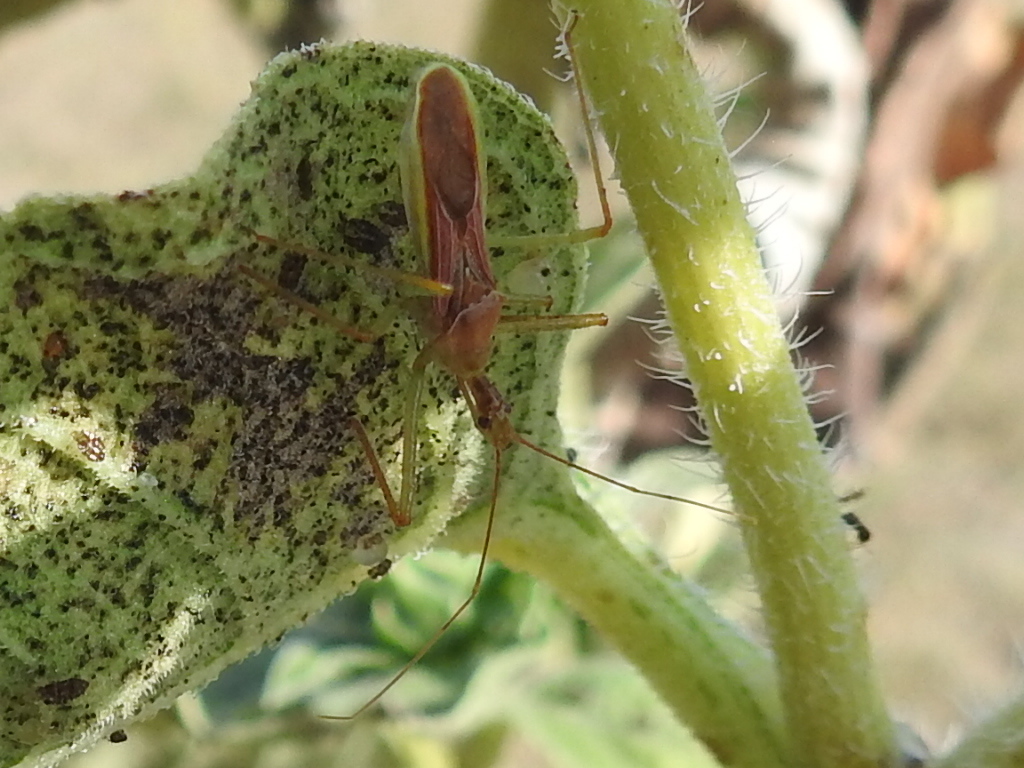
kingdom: Animalia
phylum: Arthropoda
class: Insecta
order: Hemiptera
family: Reduviidae
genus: Zelus
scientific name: Zelus renardii
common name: Assassin bug
